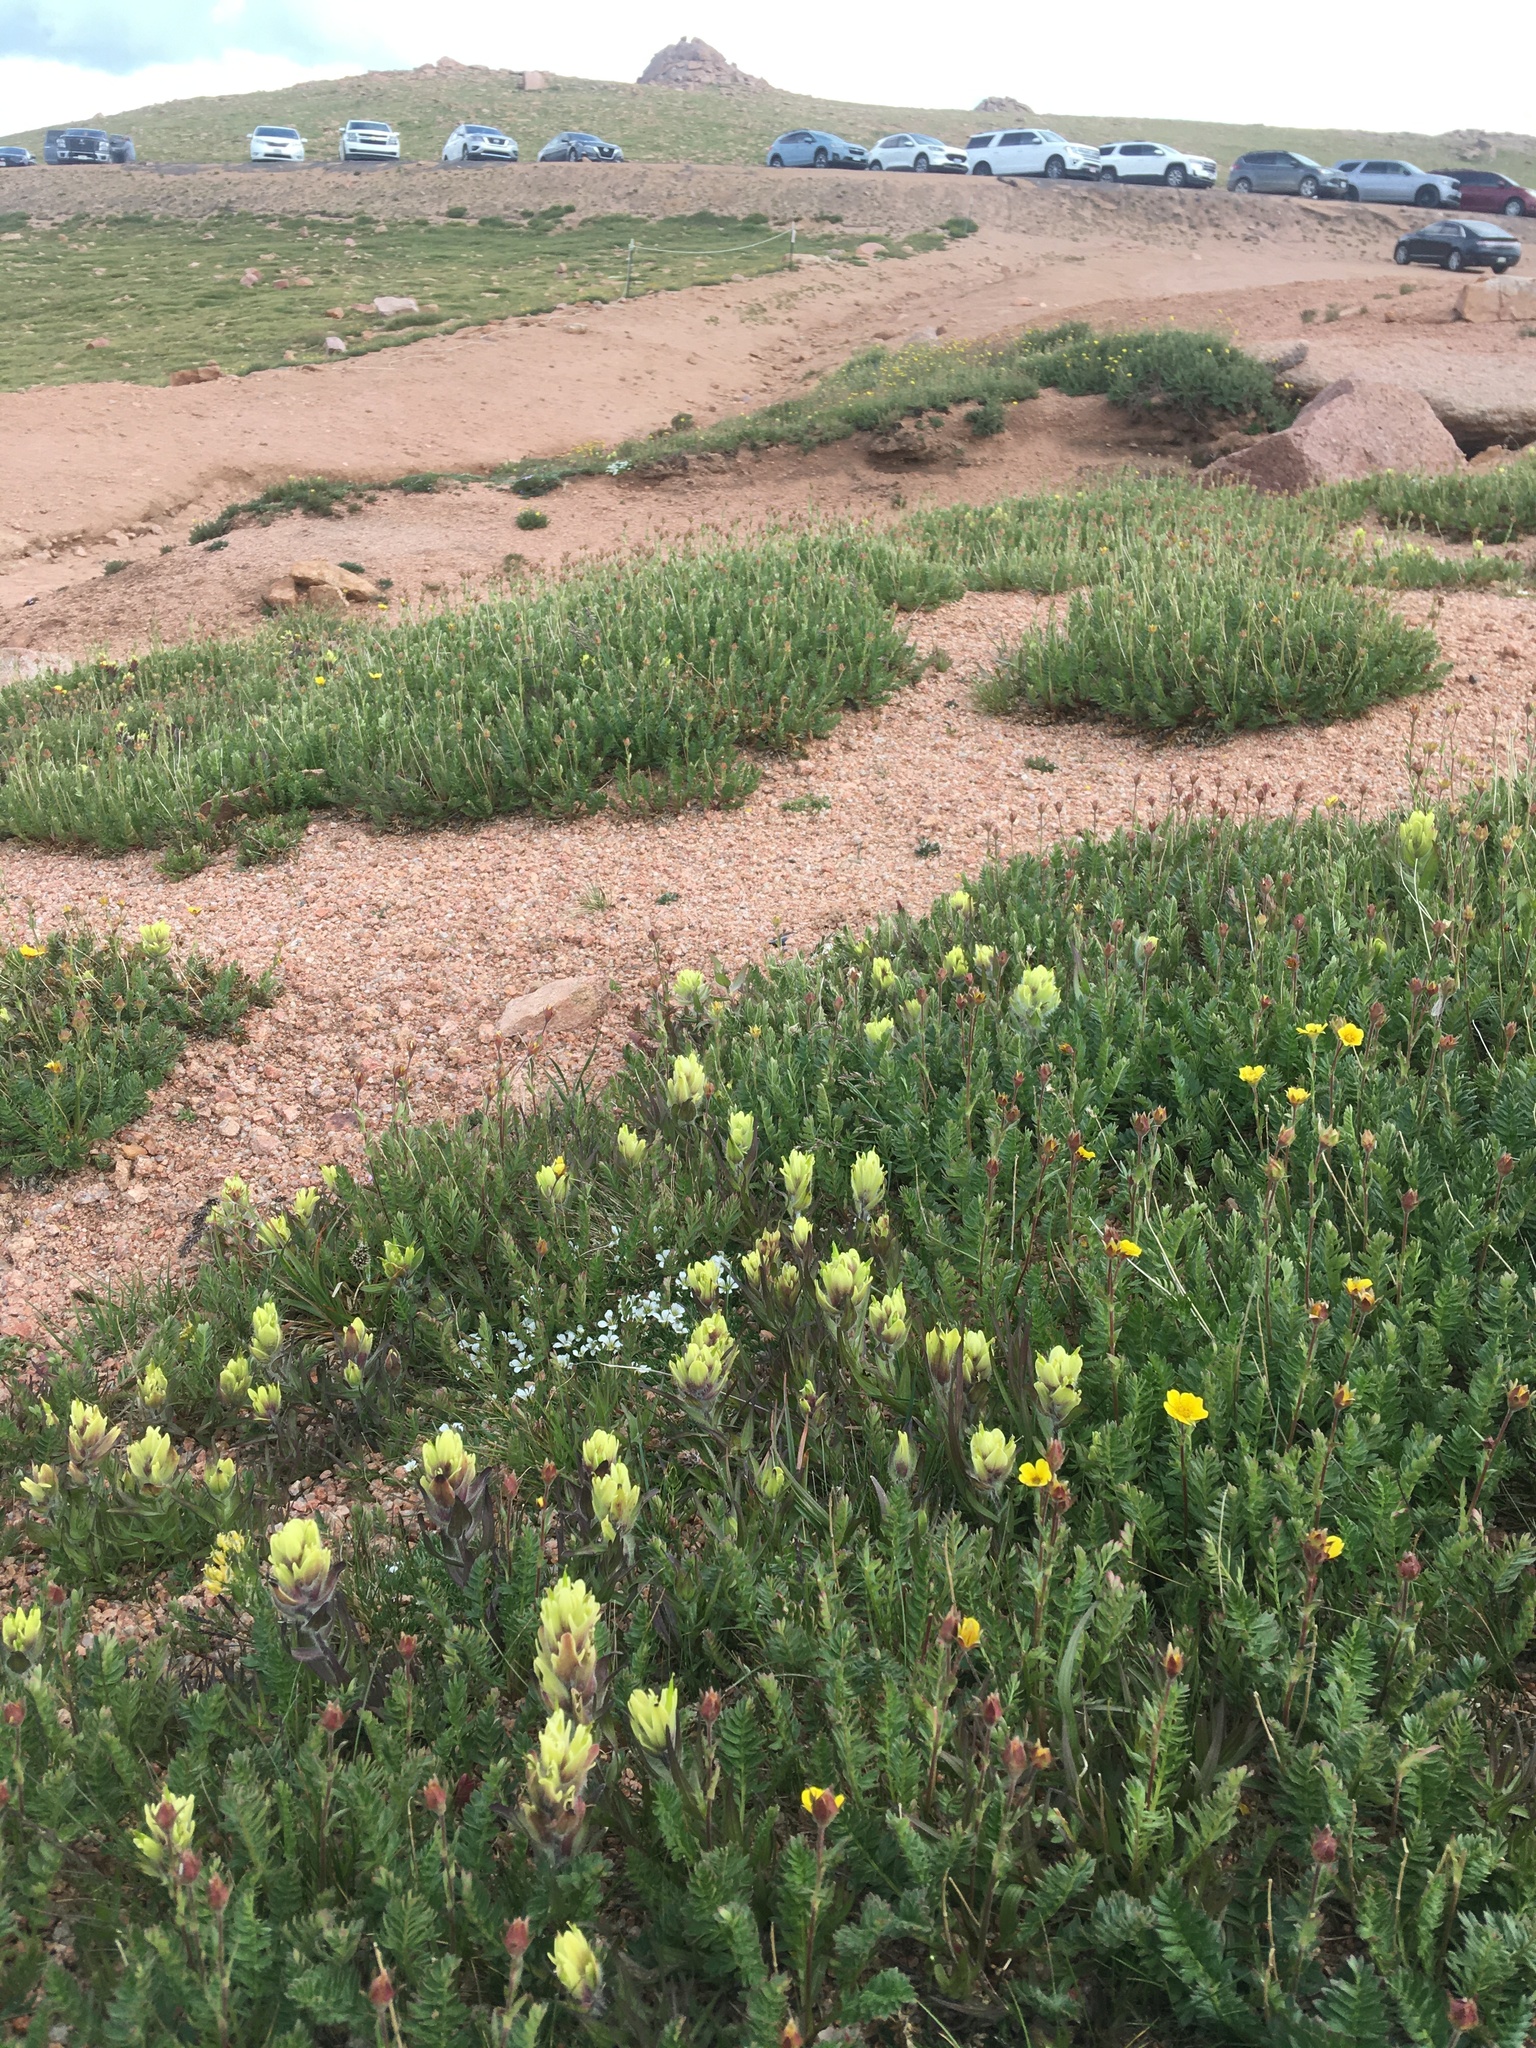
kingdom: Plantae
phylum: Tracheophyta
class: Magnoliopsida
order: Lamiales
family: Orobanchaceae
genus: Castilleja
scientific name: Castilleja occidentalis
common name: Western paintbrush
